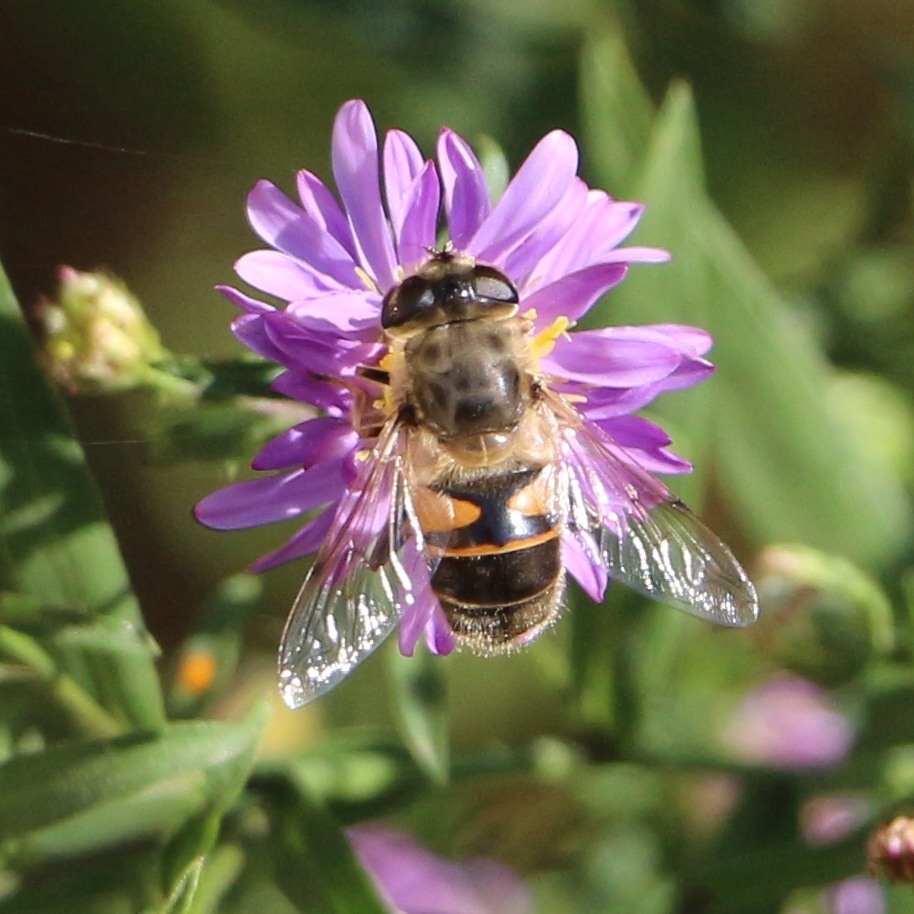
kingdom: Animalia
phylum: Arthropoda
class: Insecta
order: Diptera
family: Syrphidae
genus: Eristalis
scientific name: Eristalis tenax
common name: Drone fly
